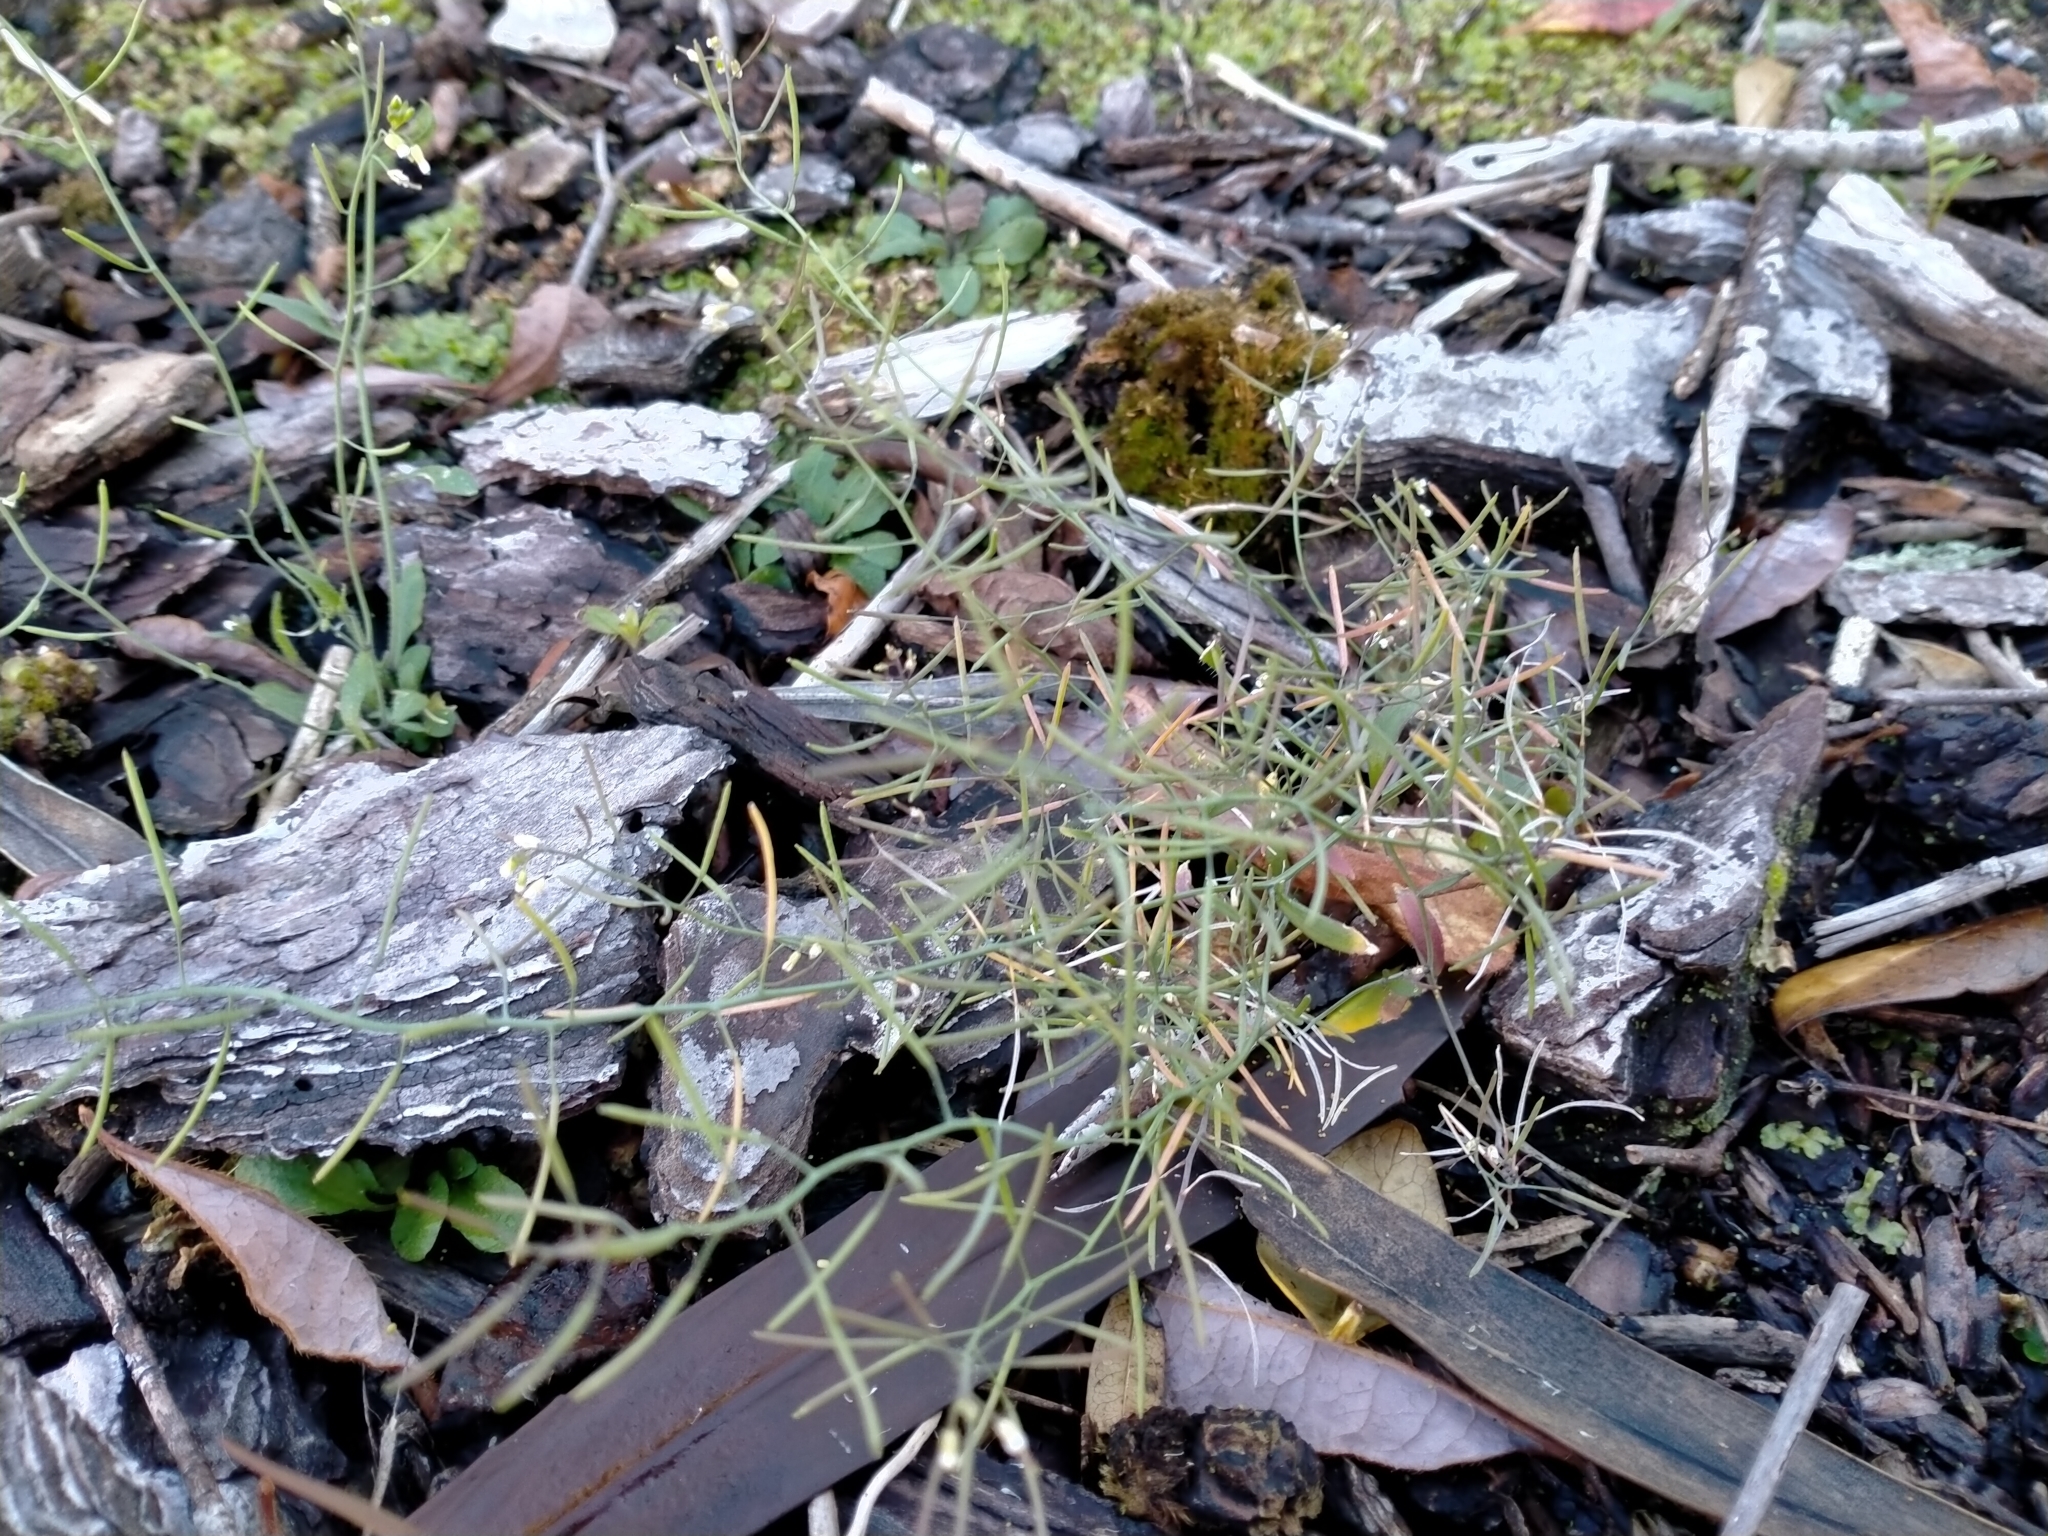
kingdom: Plantae
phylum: Tracheophyta
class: Magnoliopsida
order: Brassicales
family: Brassicaceae
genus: Arabidopsis
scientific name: Arabidopsis thaliana
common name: Thale cress
